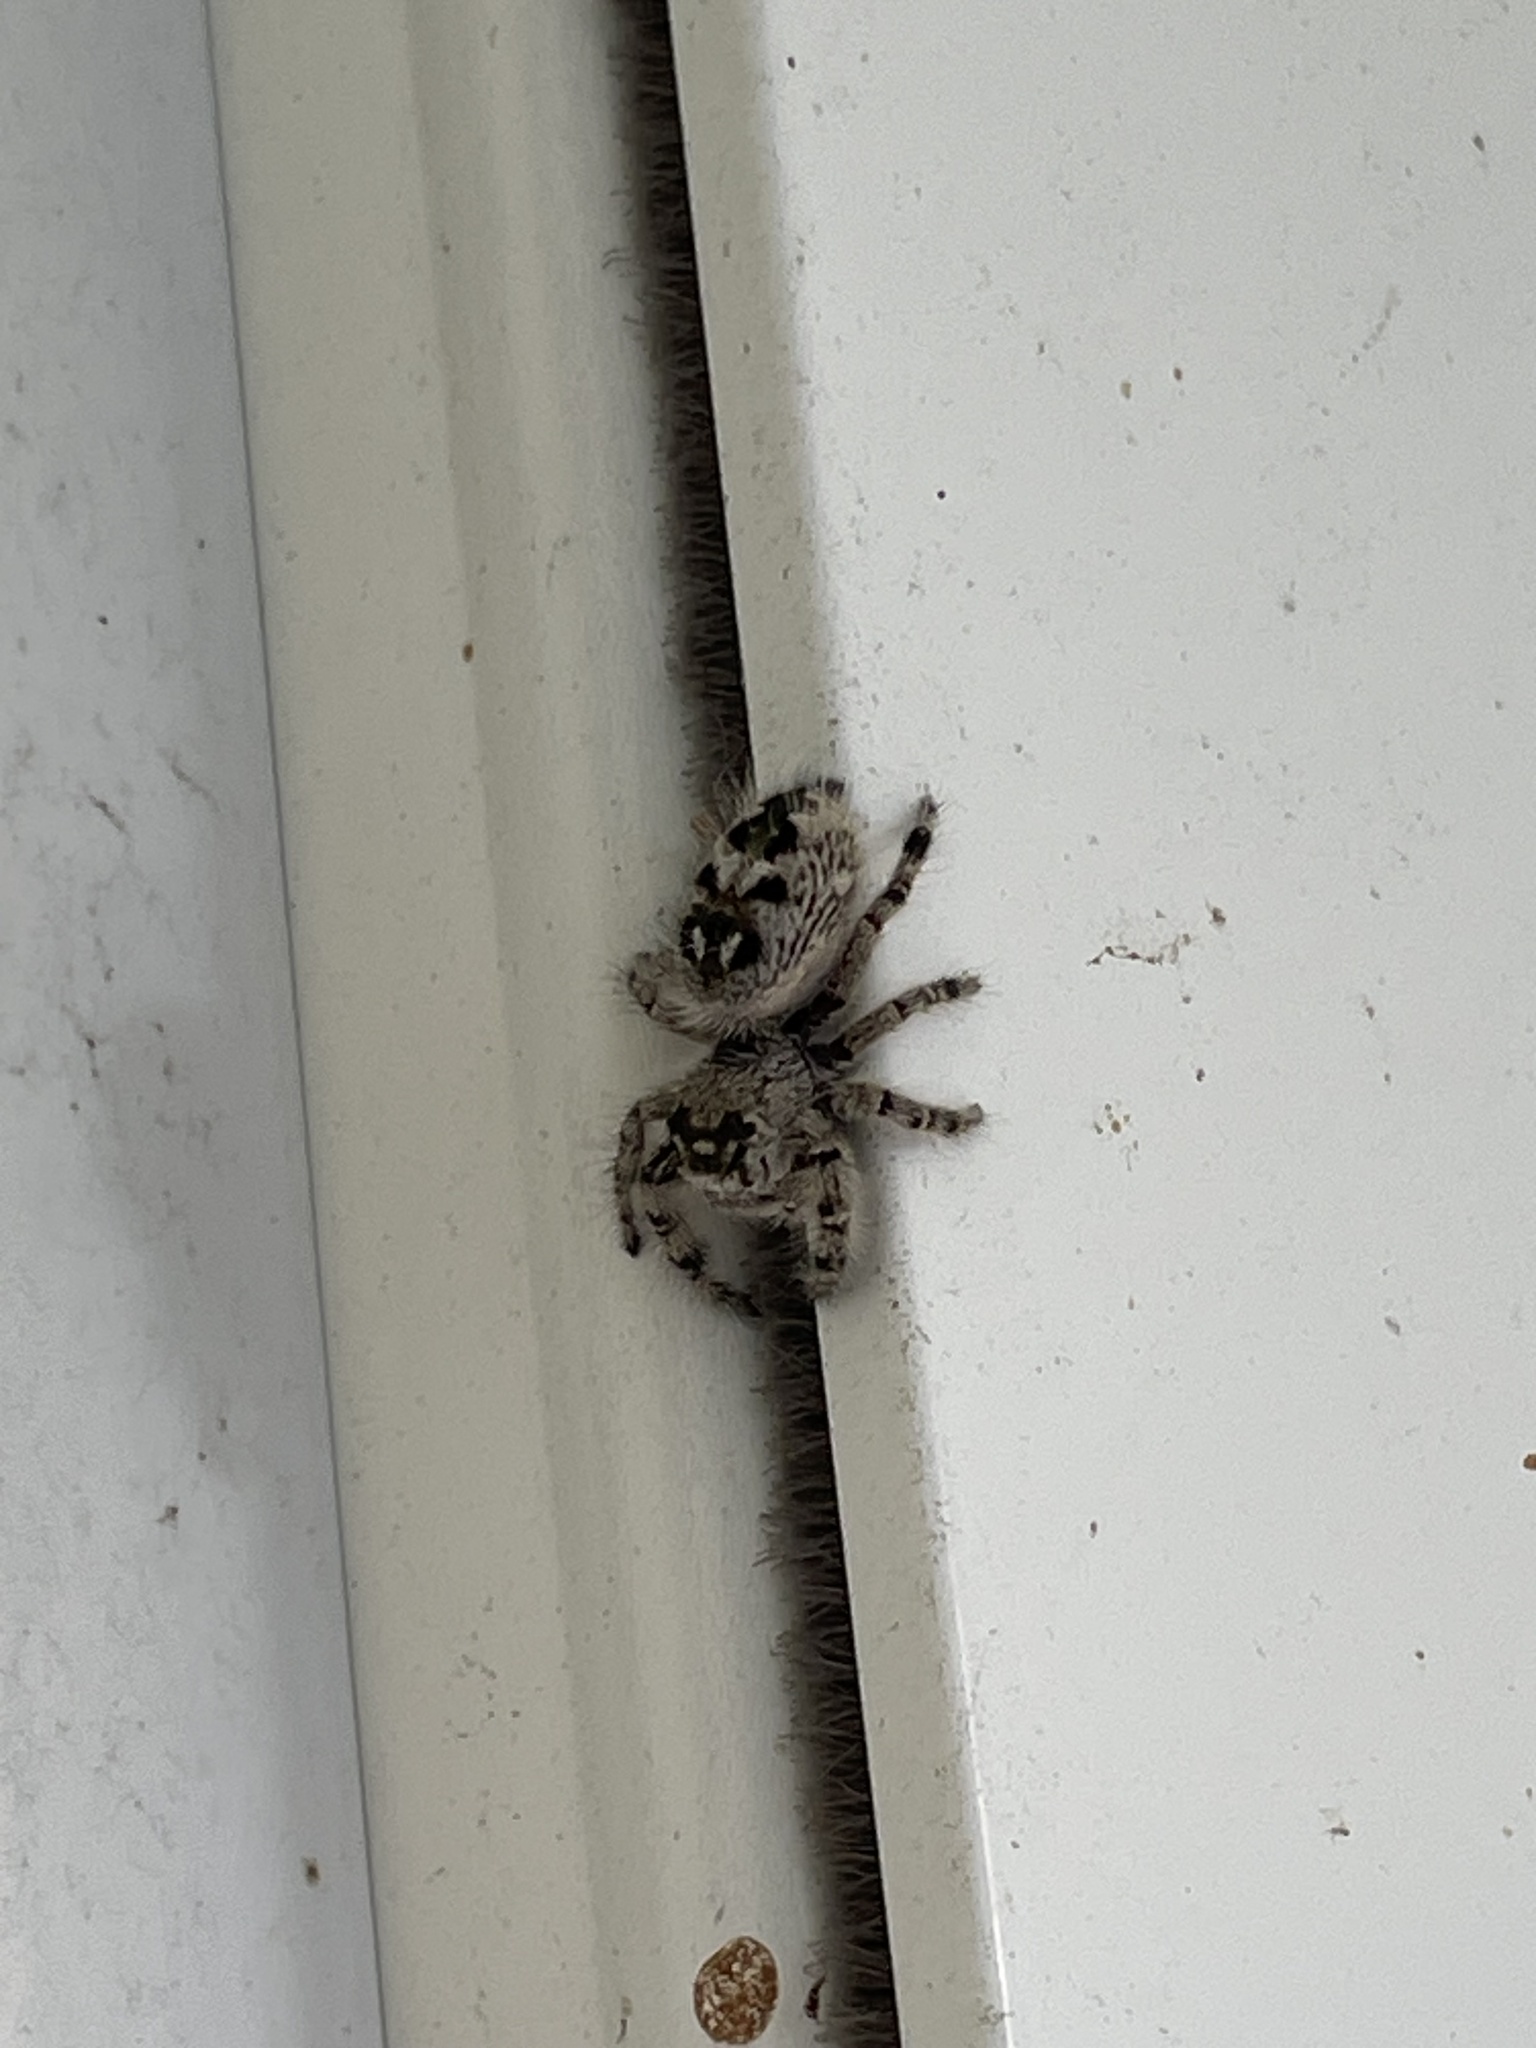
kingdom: Animalia
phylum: Arthropoda
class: Arachnida
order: Araneae
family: Salticidae
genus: Phidippus
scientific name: Phidippus otiosus
